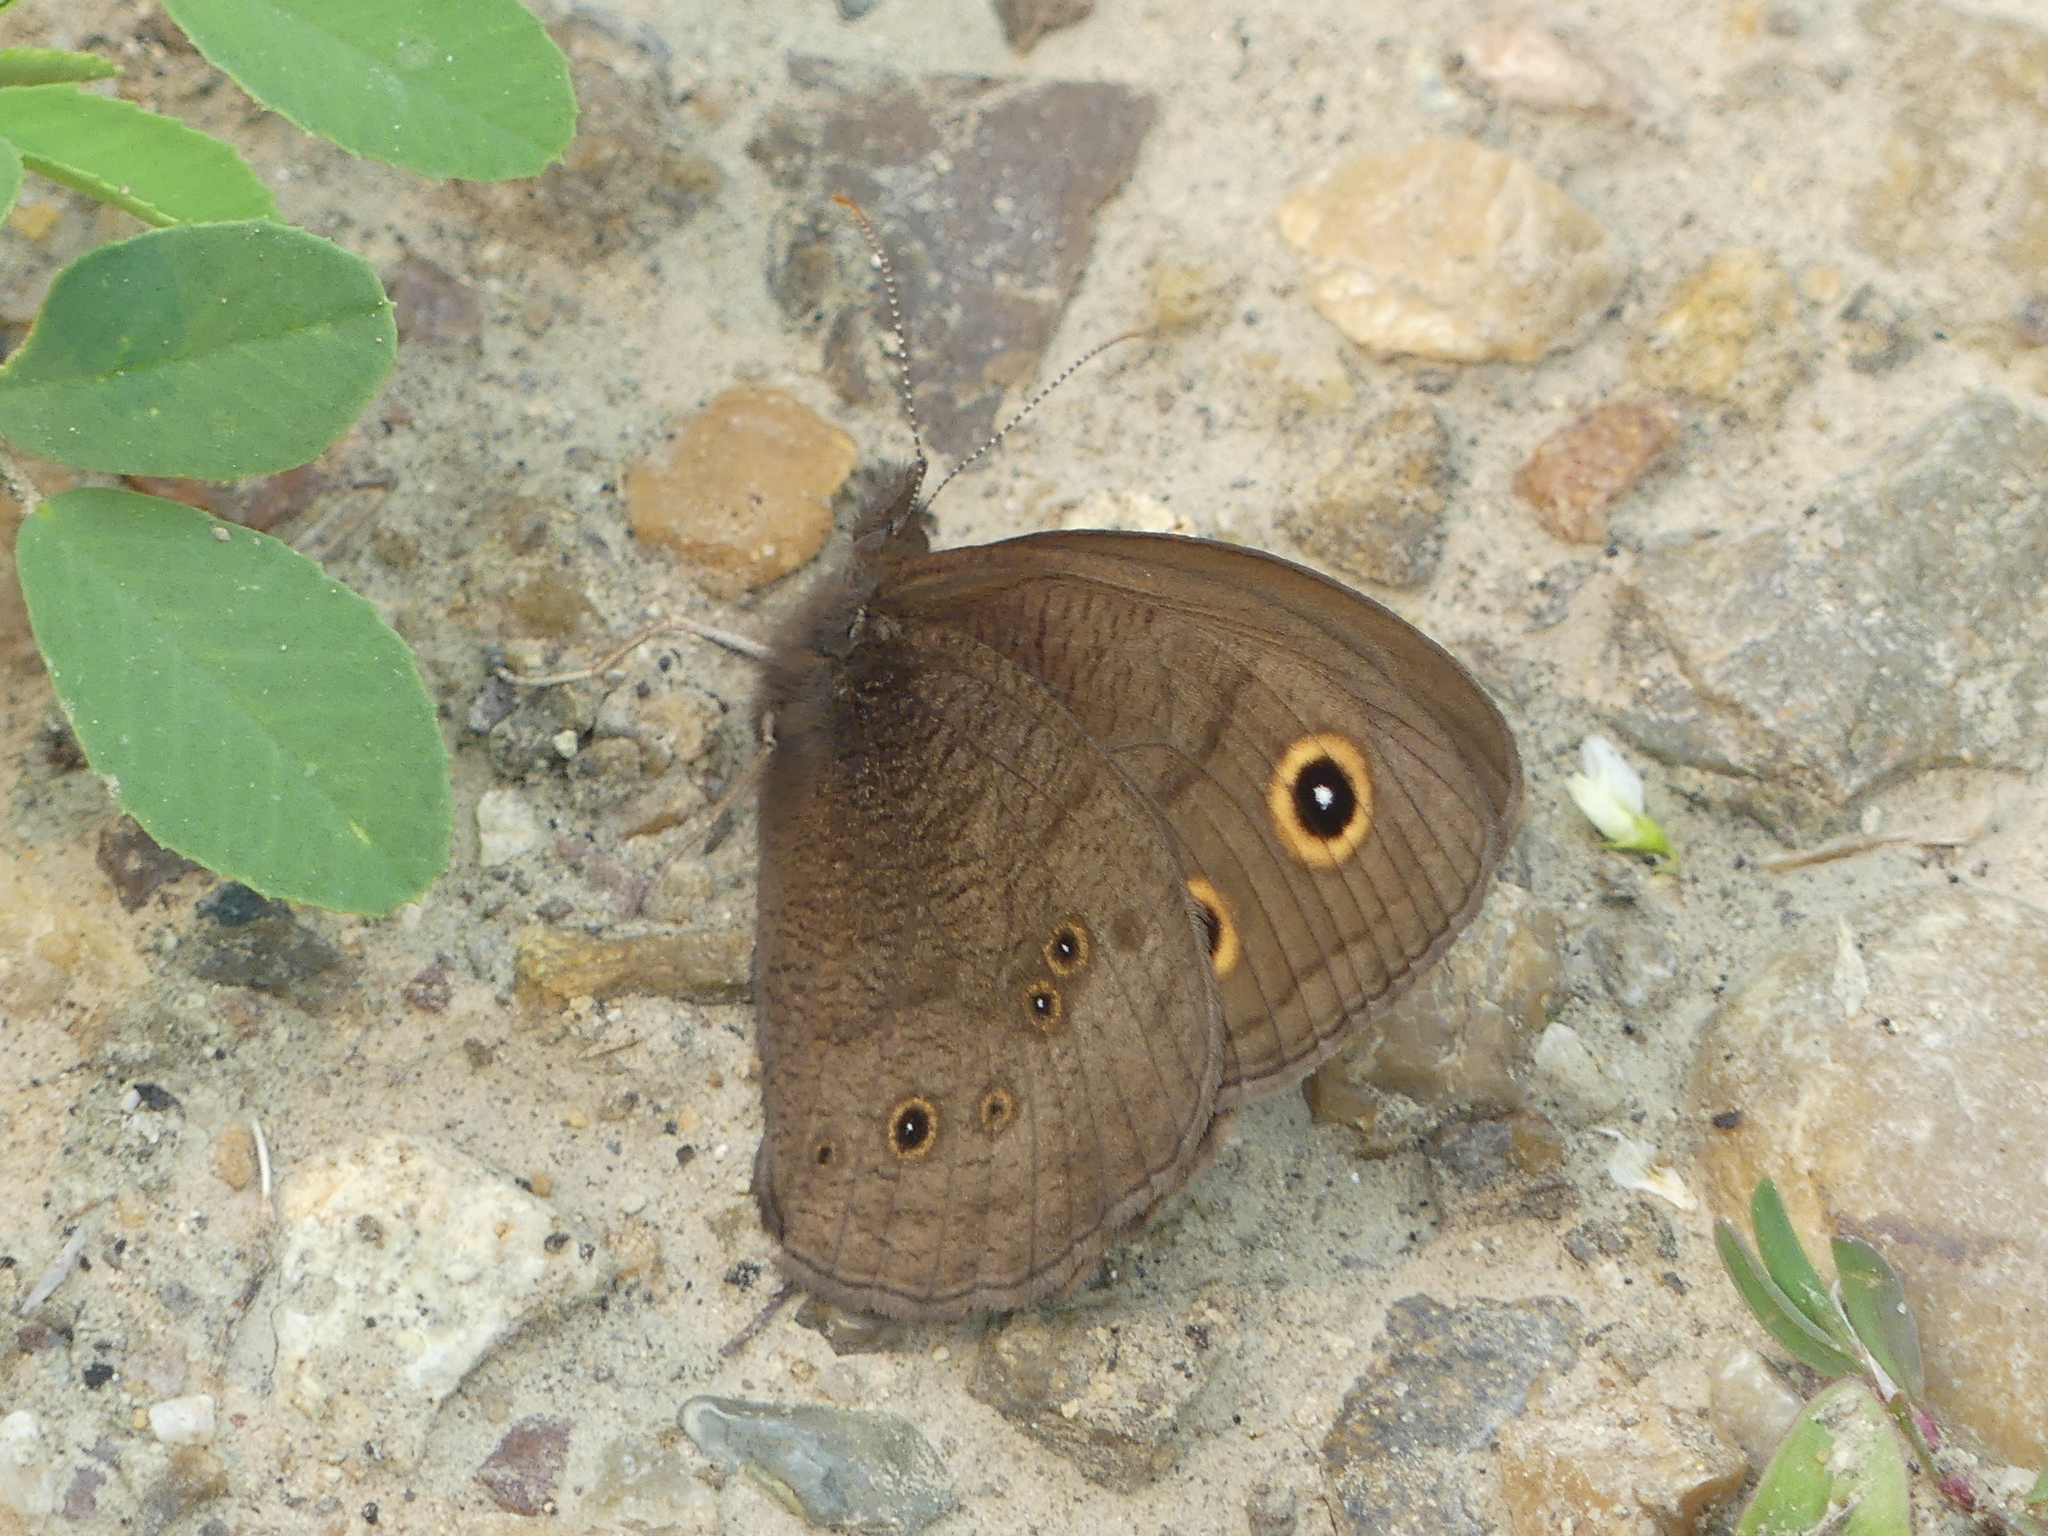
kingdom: Animalia
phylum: Arthropoda
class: Insecta
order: Lepidoptera
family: Nymphalidae
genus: Cercyonis
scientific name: Cercyonis pegala
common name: Common wood-nymph
